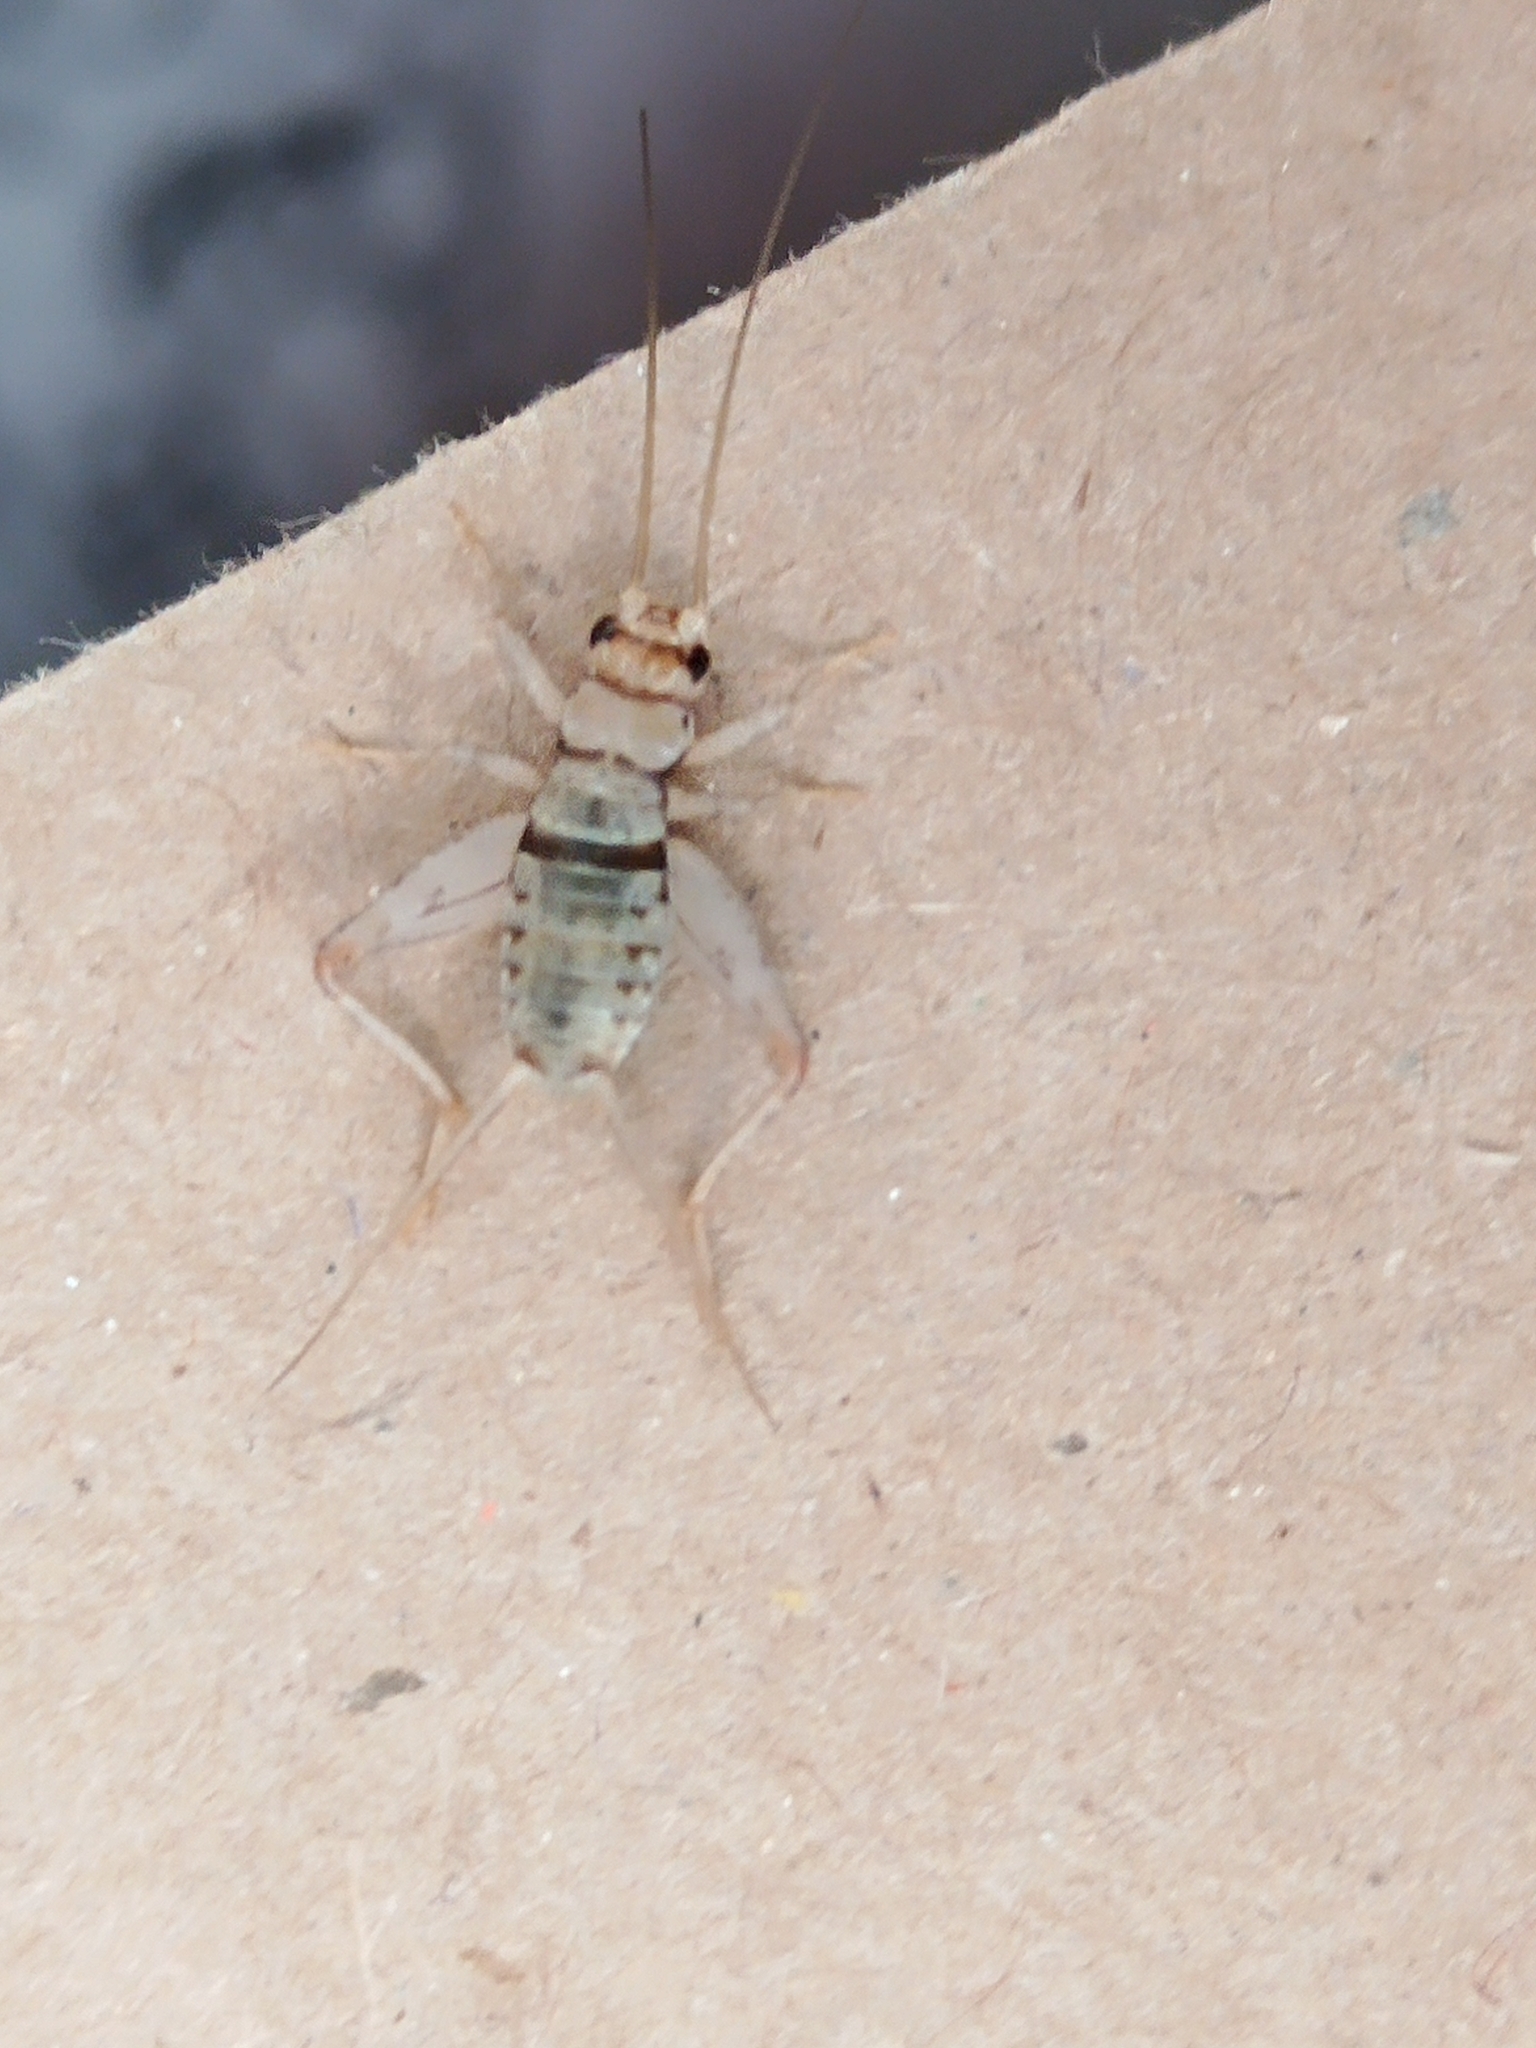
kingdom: Animalia
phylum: Arthropoda
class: Insecta
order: Orthoptera
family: Gryllidae
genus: Gryllodes
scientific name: Gryllodes sigillatus
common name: Tropical house cricket
